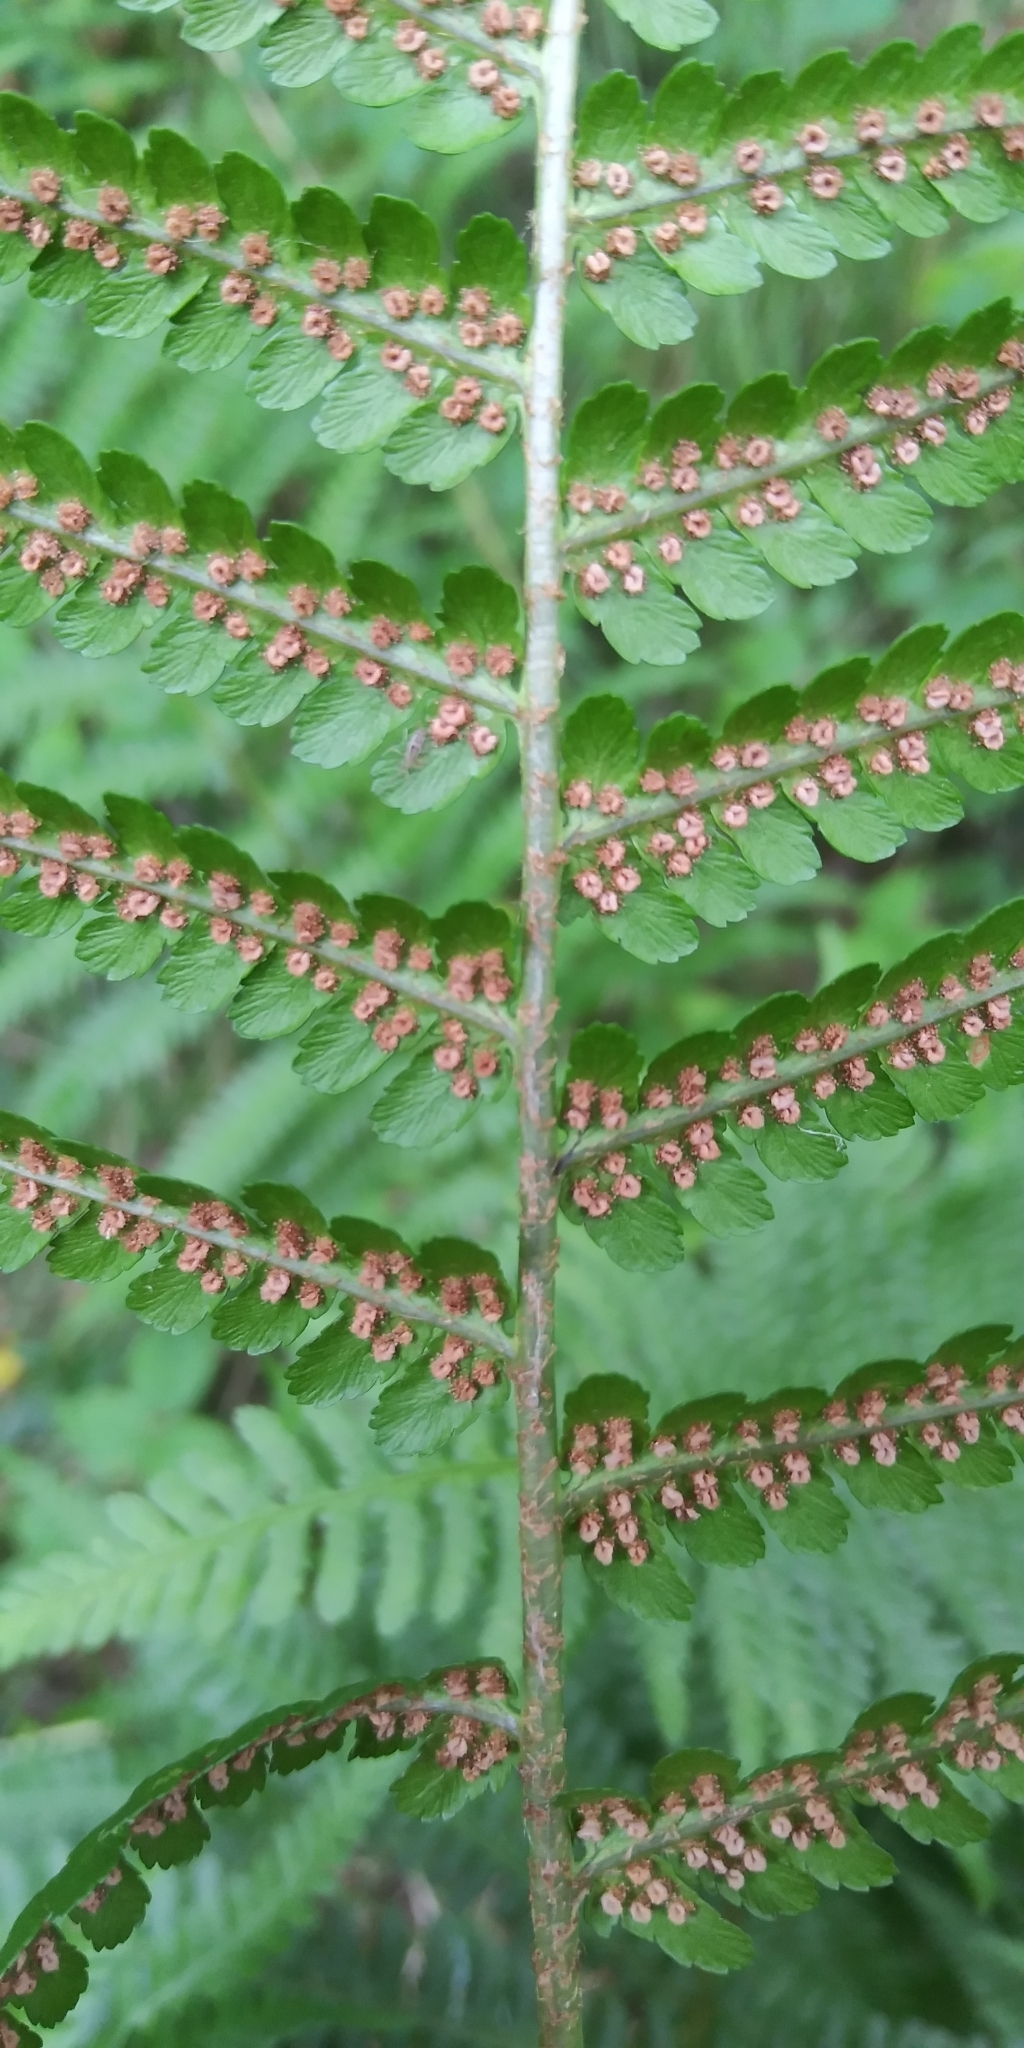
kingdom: Plantae
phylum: Tracheophyta
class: Polypodiopsida
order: Polypodiales
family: Dryopteridaceae
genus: Dryopteris
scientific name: Dryopteris filix-mas
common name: Male fern
